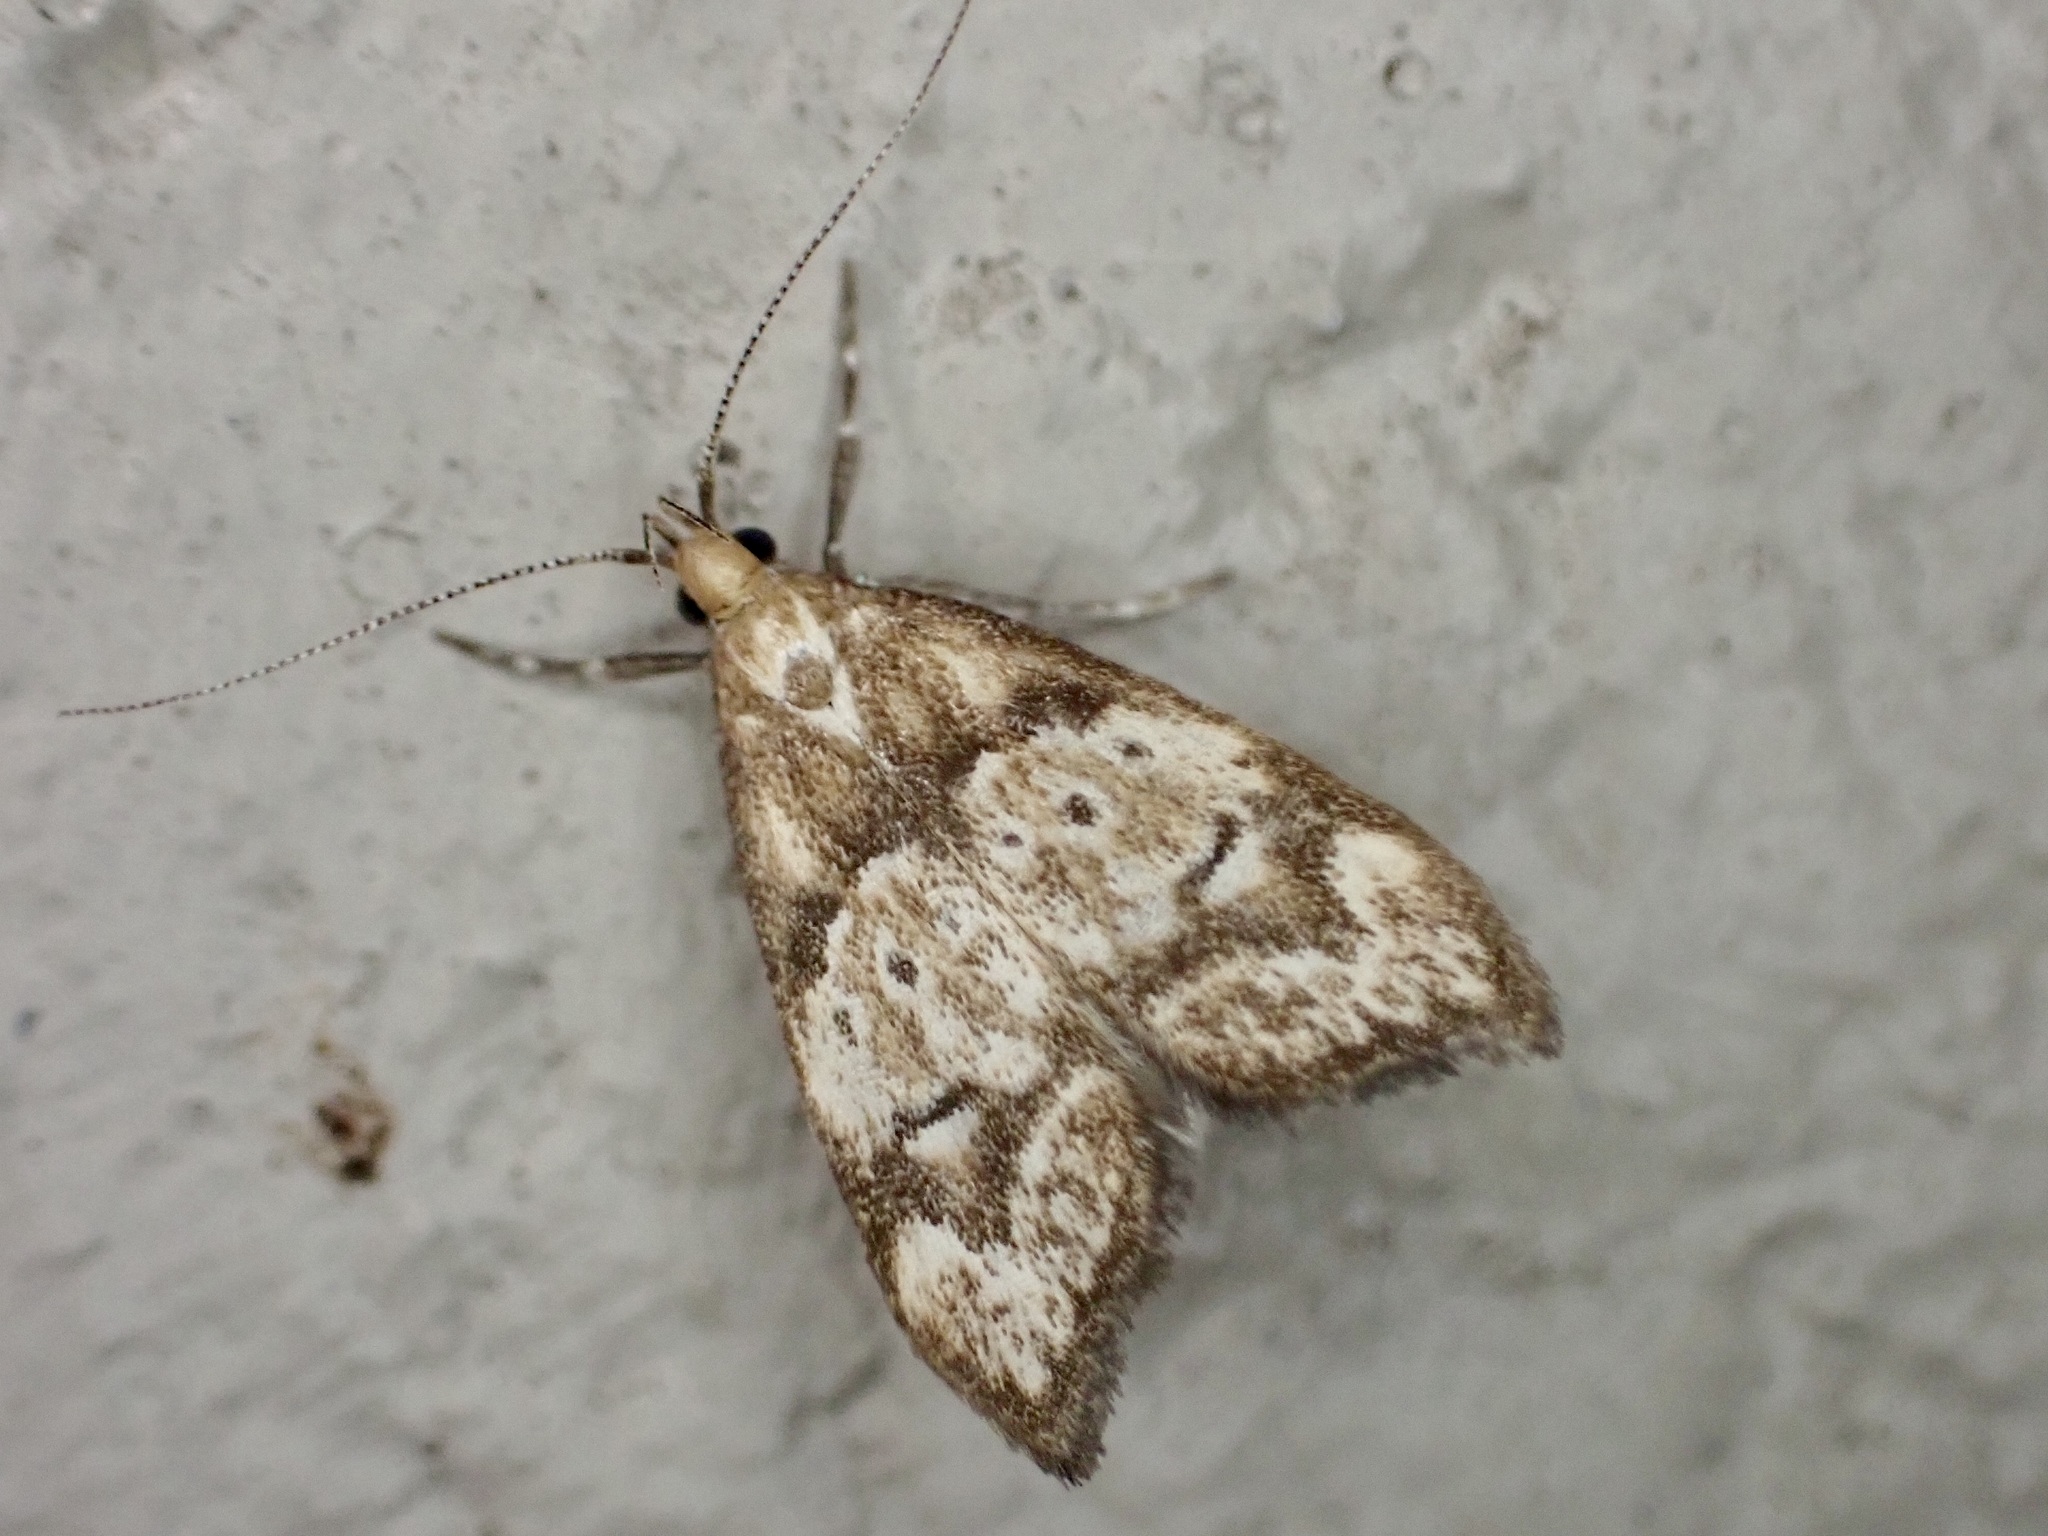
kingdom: Animalia
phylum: Arthropoda
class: Insecta
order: Lepidoptera
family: Oecophoridae
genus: Gymnobathra
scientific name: Gymnobathra hamatella
